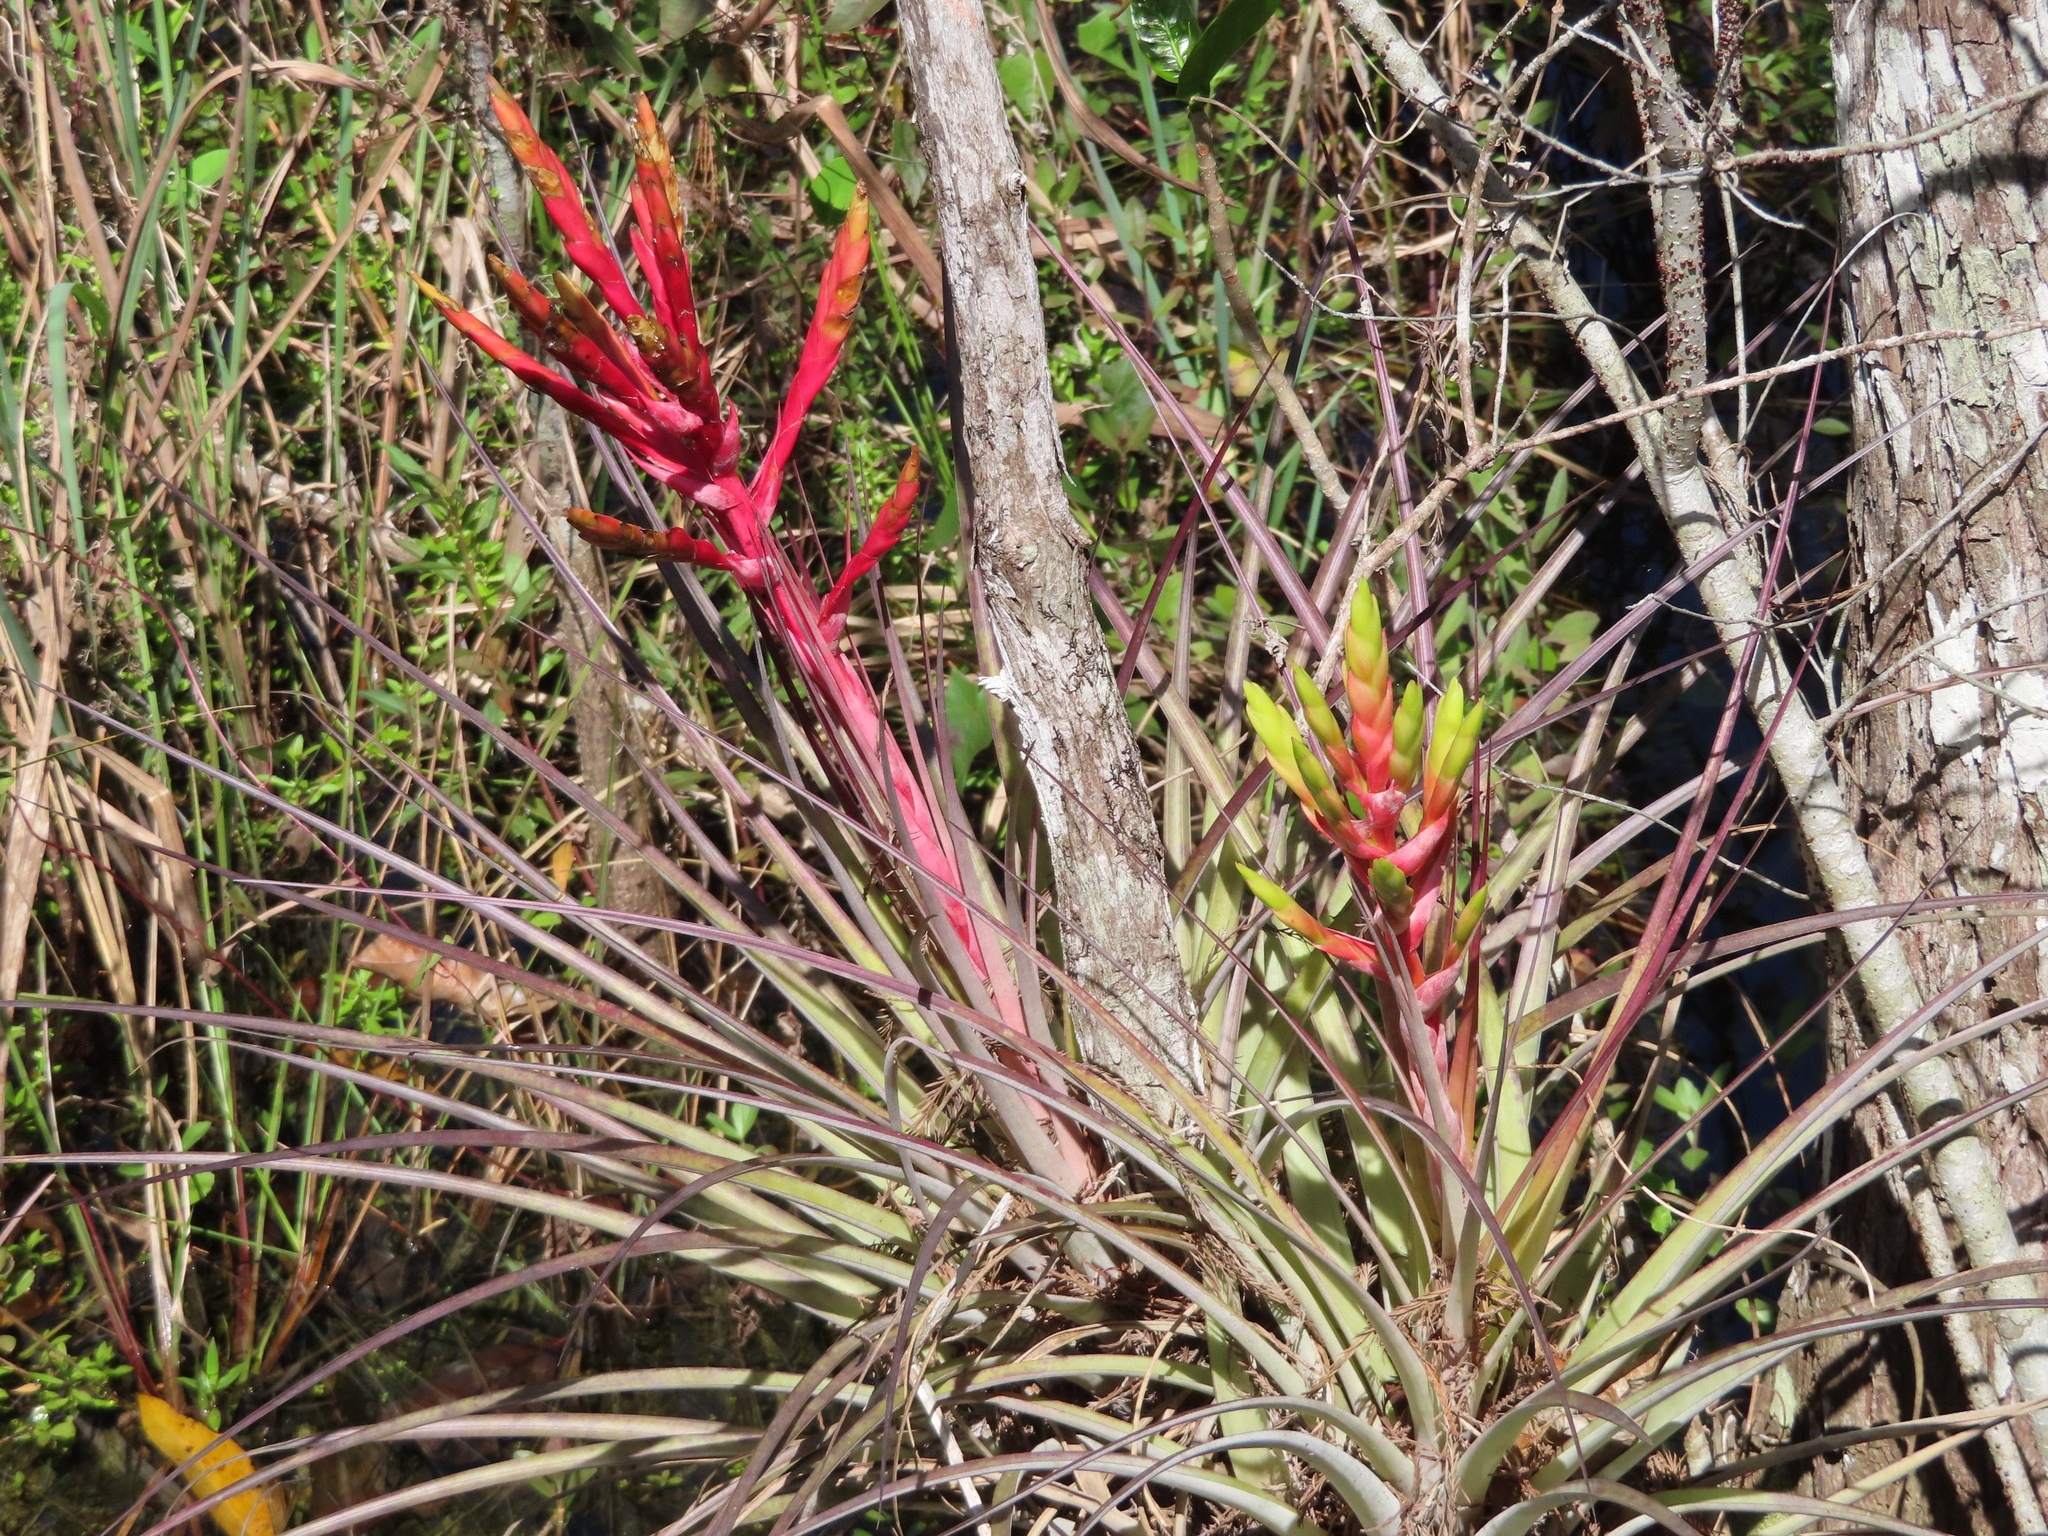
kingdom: Plantae
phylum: Tracheophyta
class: Liliopsida
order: Poales
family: Bromeliaceae
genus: Tillandsia
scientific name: Tillandsia fasciculata
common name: Giant airplant
